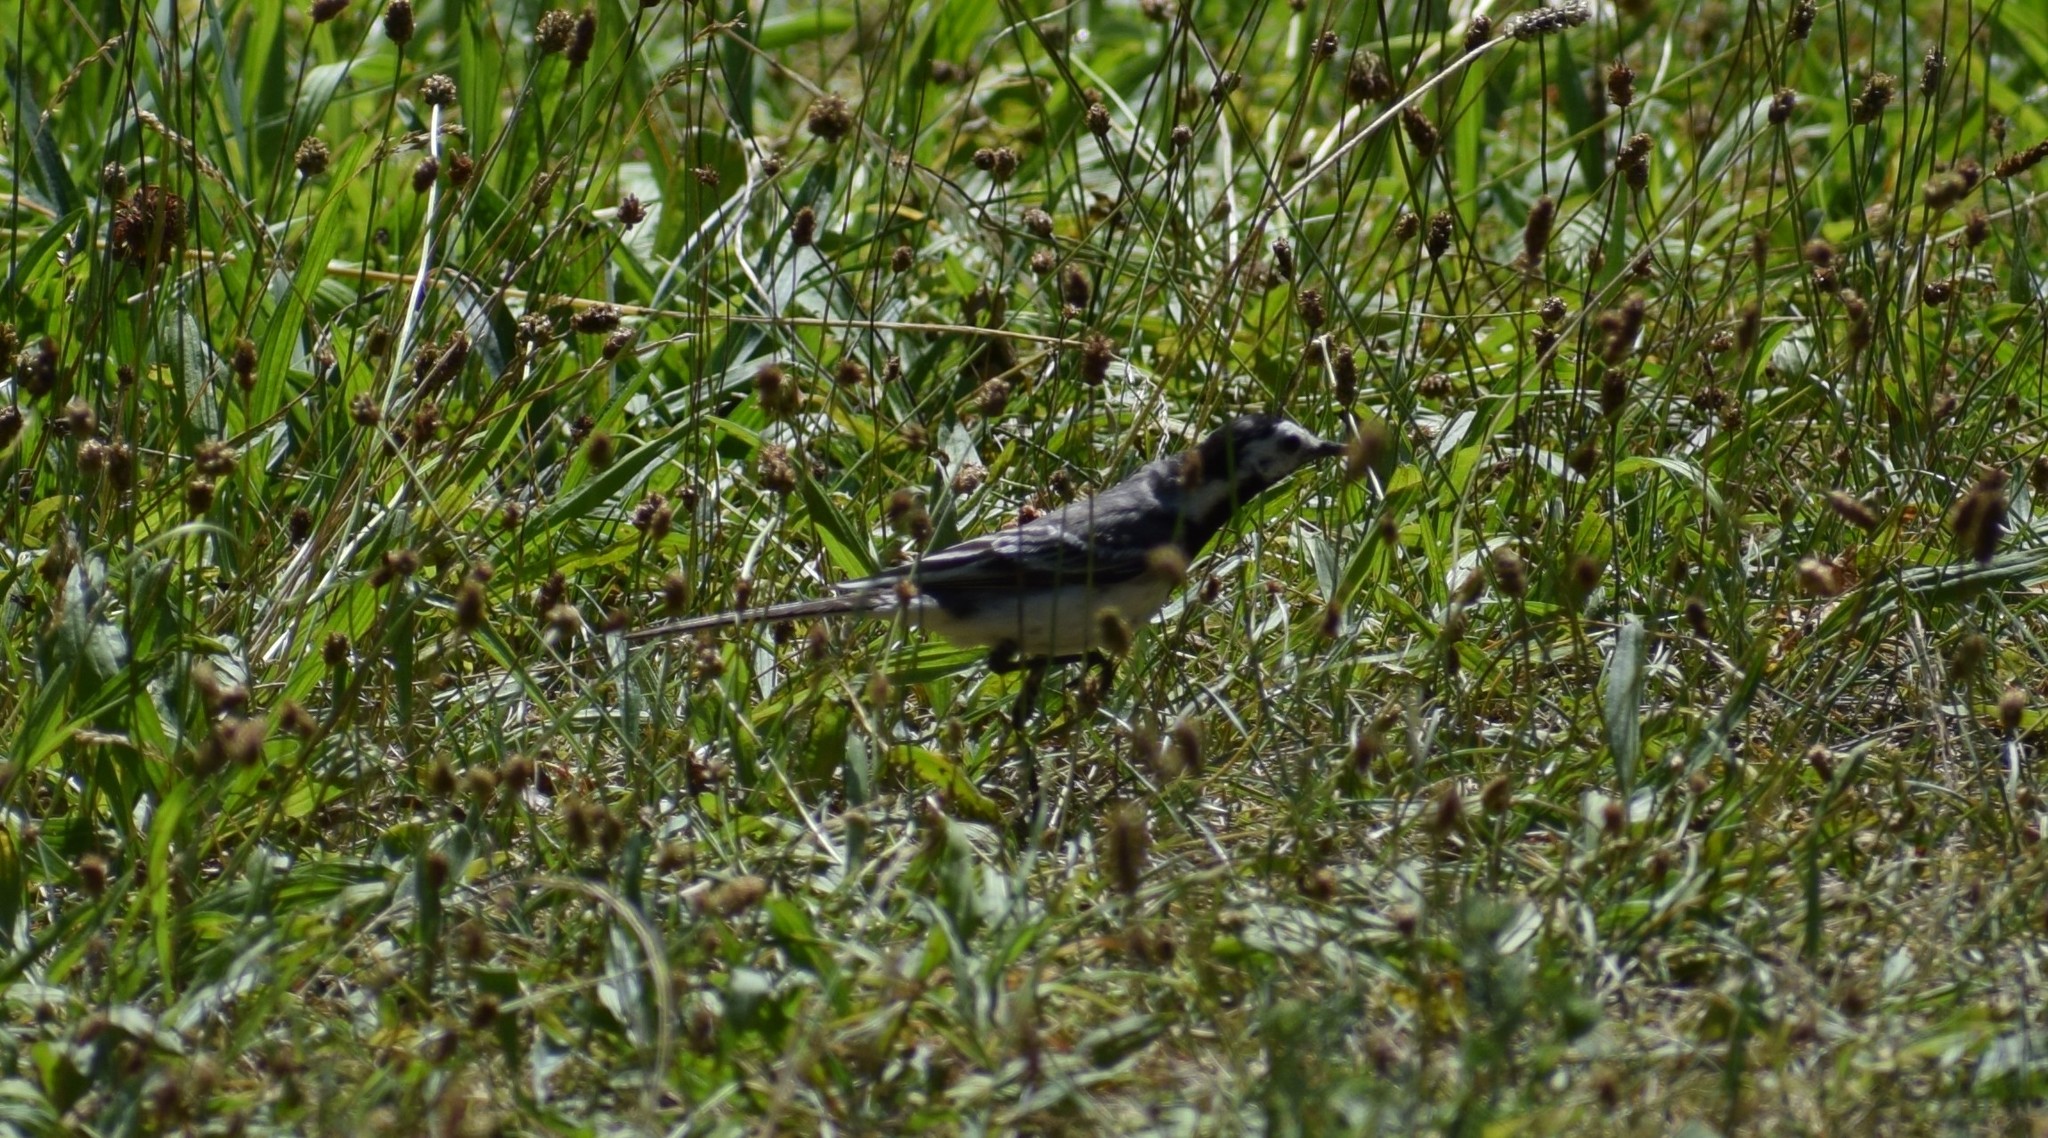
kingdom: Animalia
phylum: Chordata
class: Aves
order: Passeriformes
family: Motacillidae
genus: Motacilla
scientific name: Motacilla alba
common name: White wagtail
